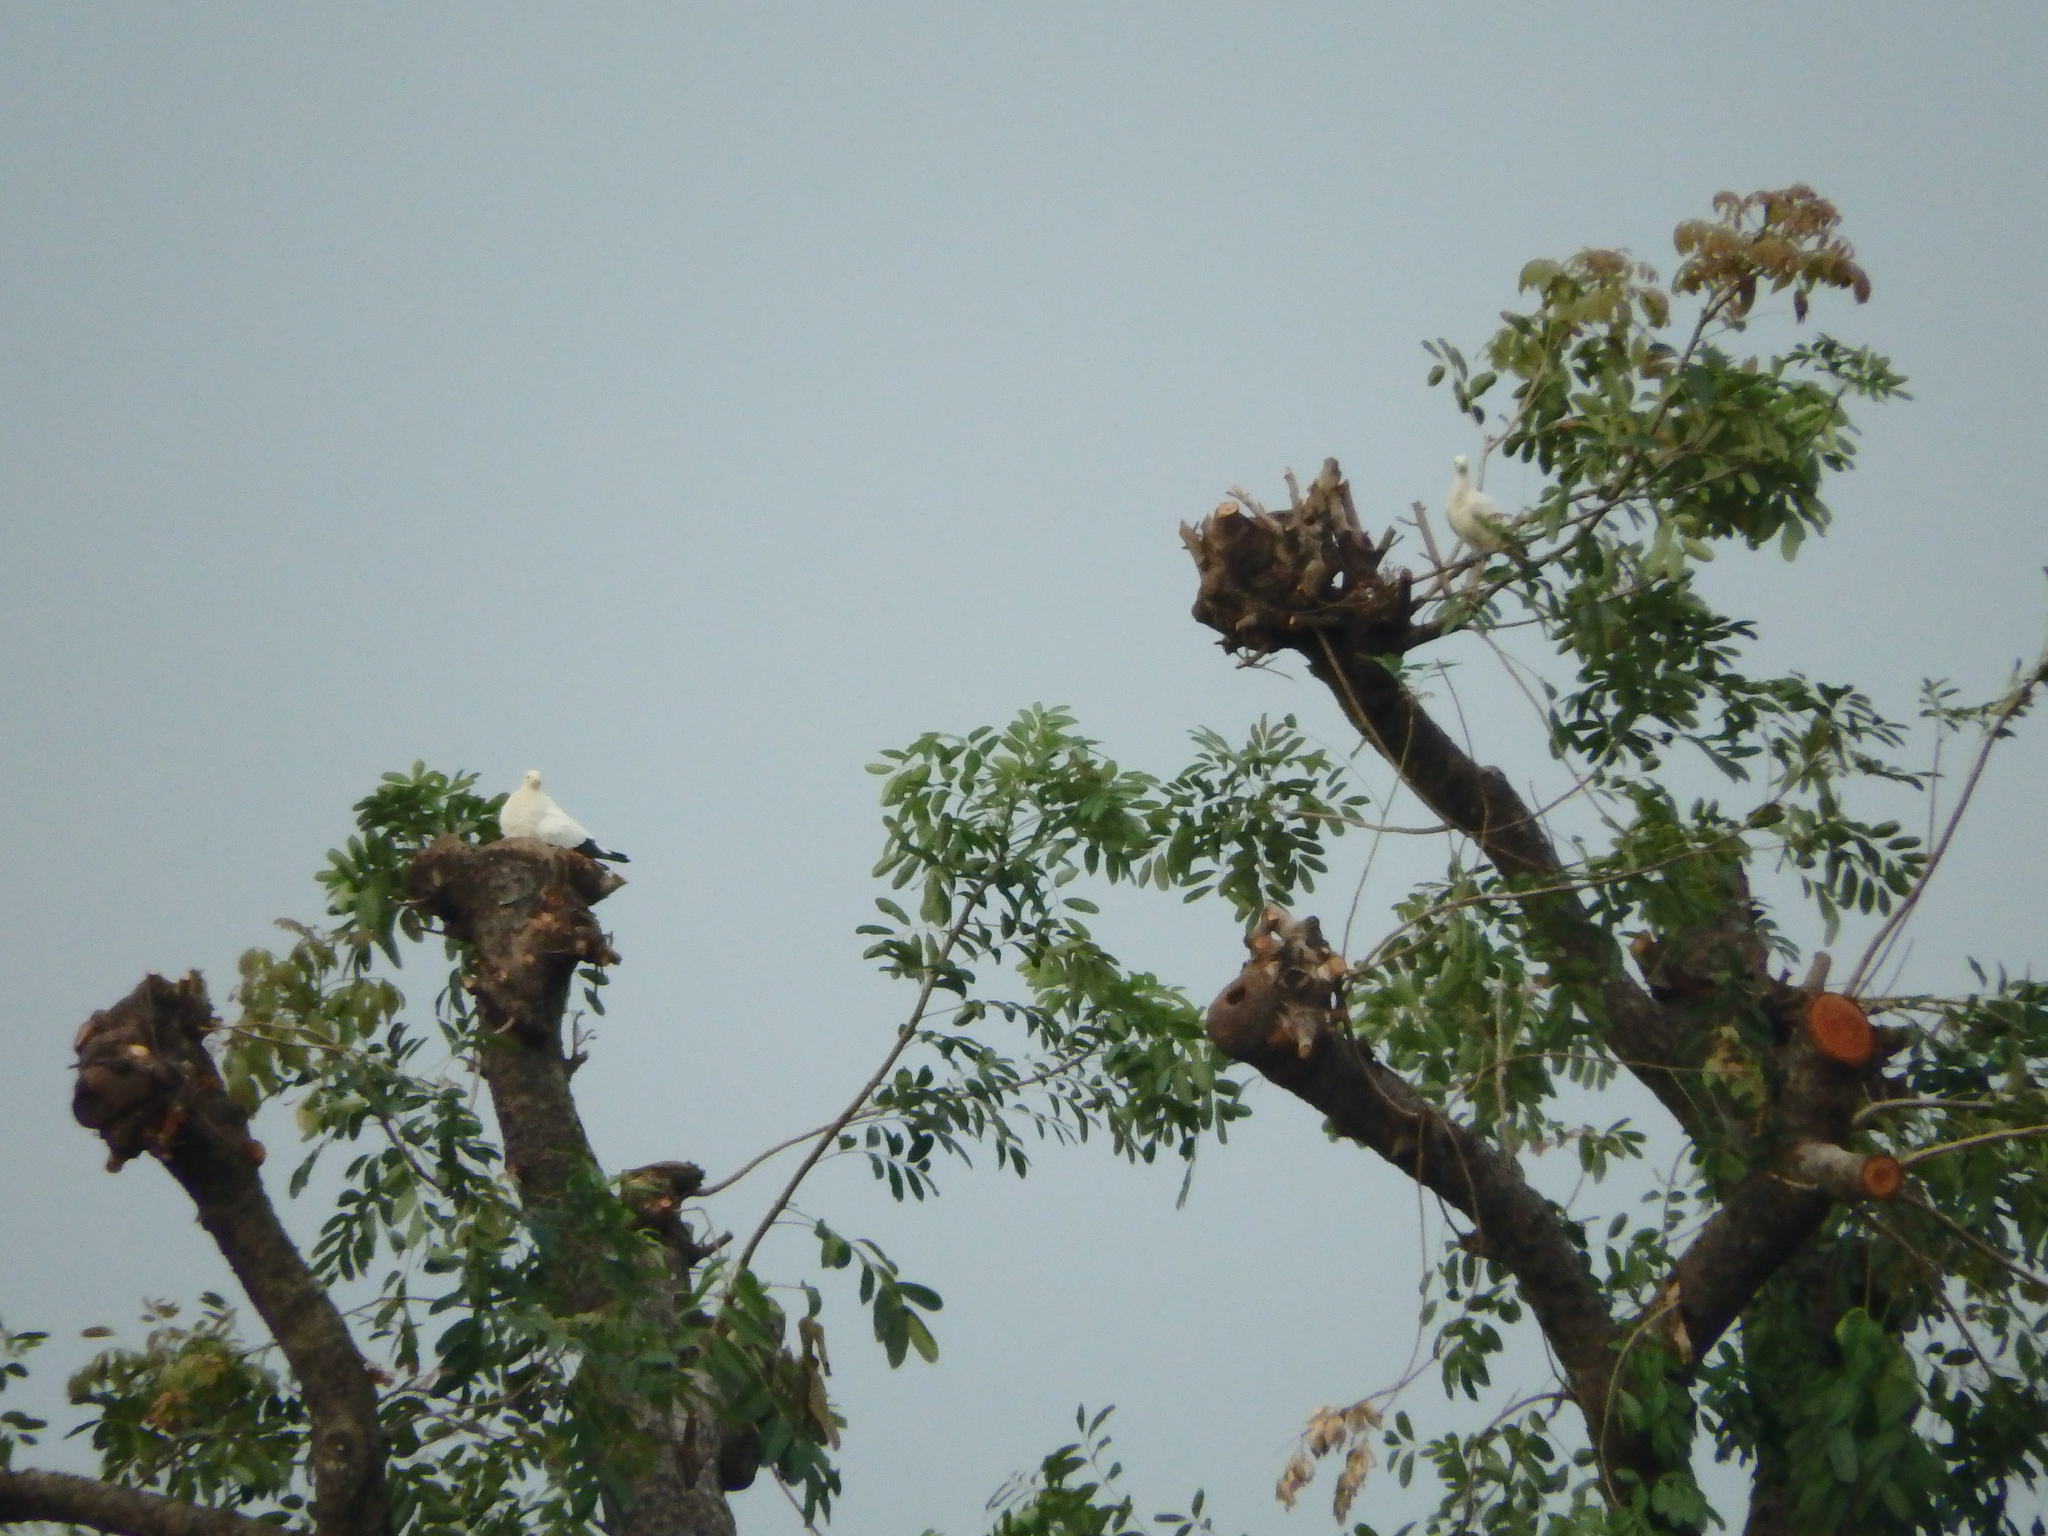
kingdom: Animalia
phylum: Chordata
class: Aves
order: Columbiformes
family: Columbidae
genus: Ducula
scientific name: Ducula bicolor
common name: Pied imperial pigeon
